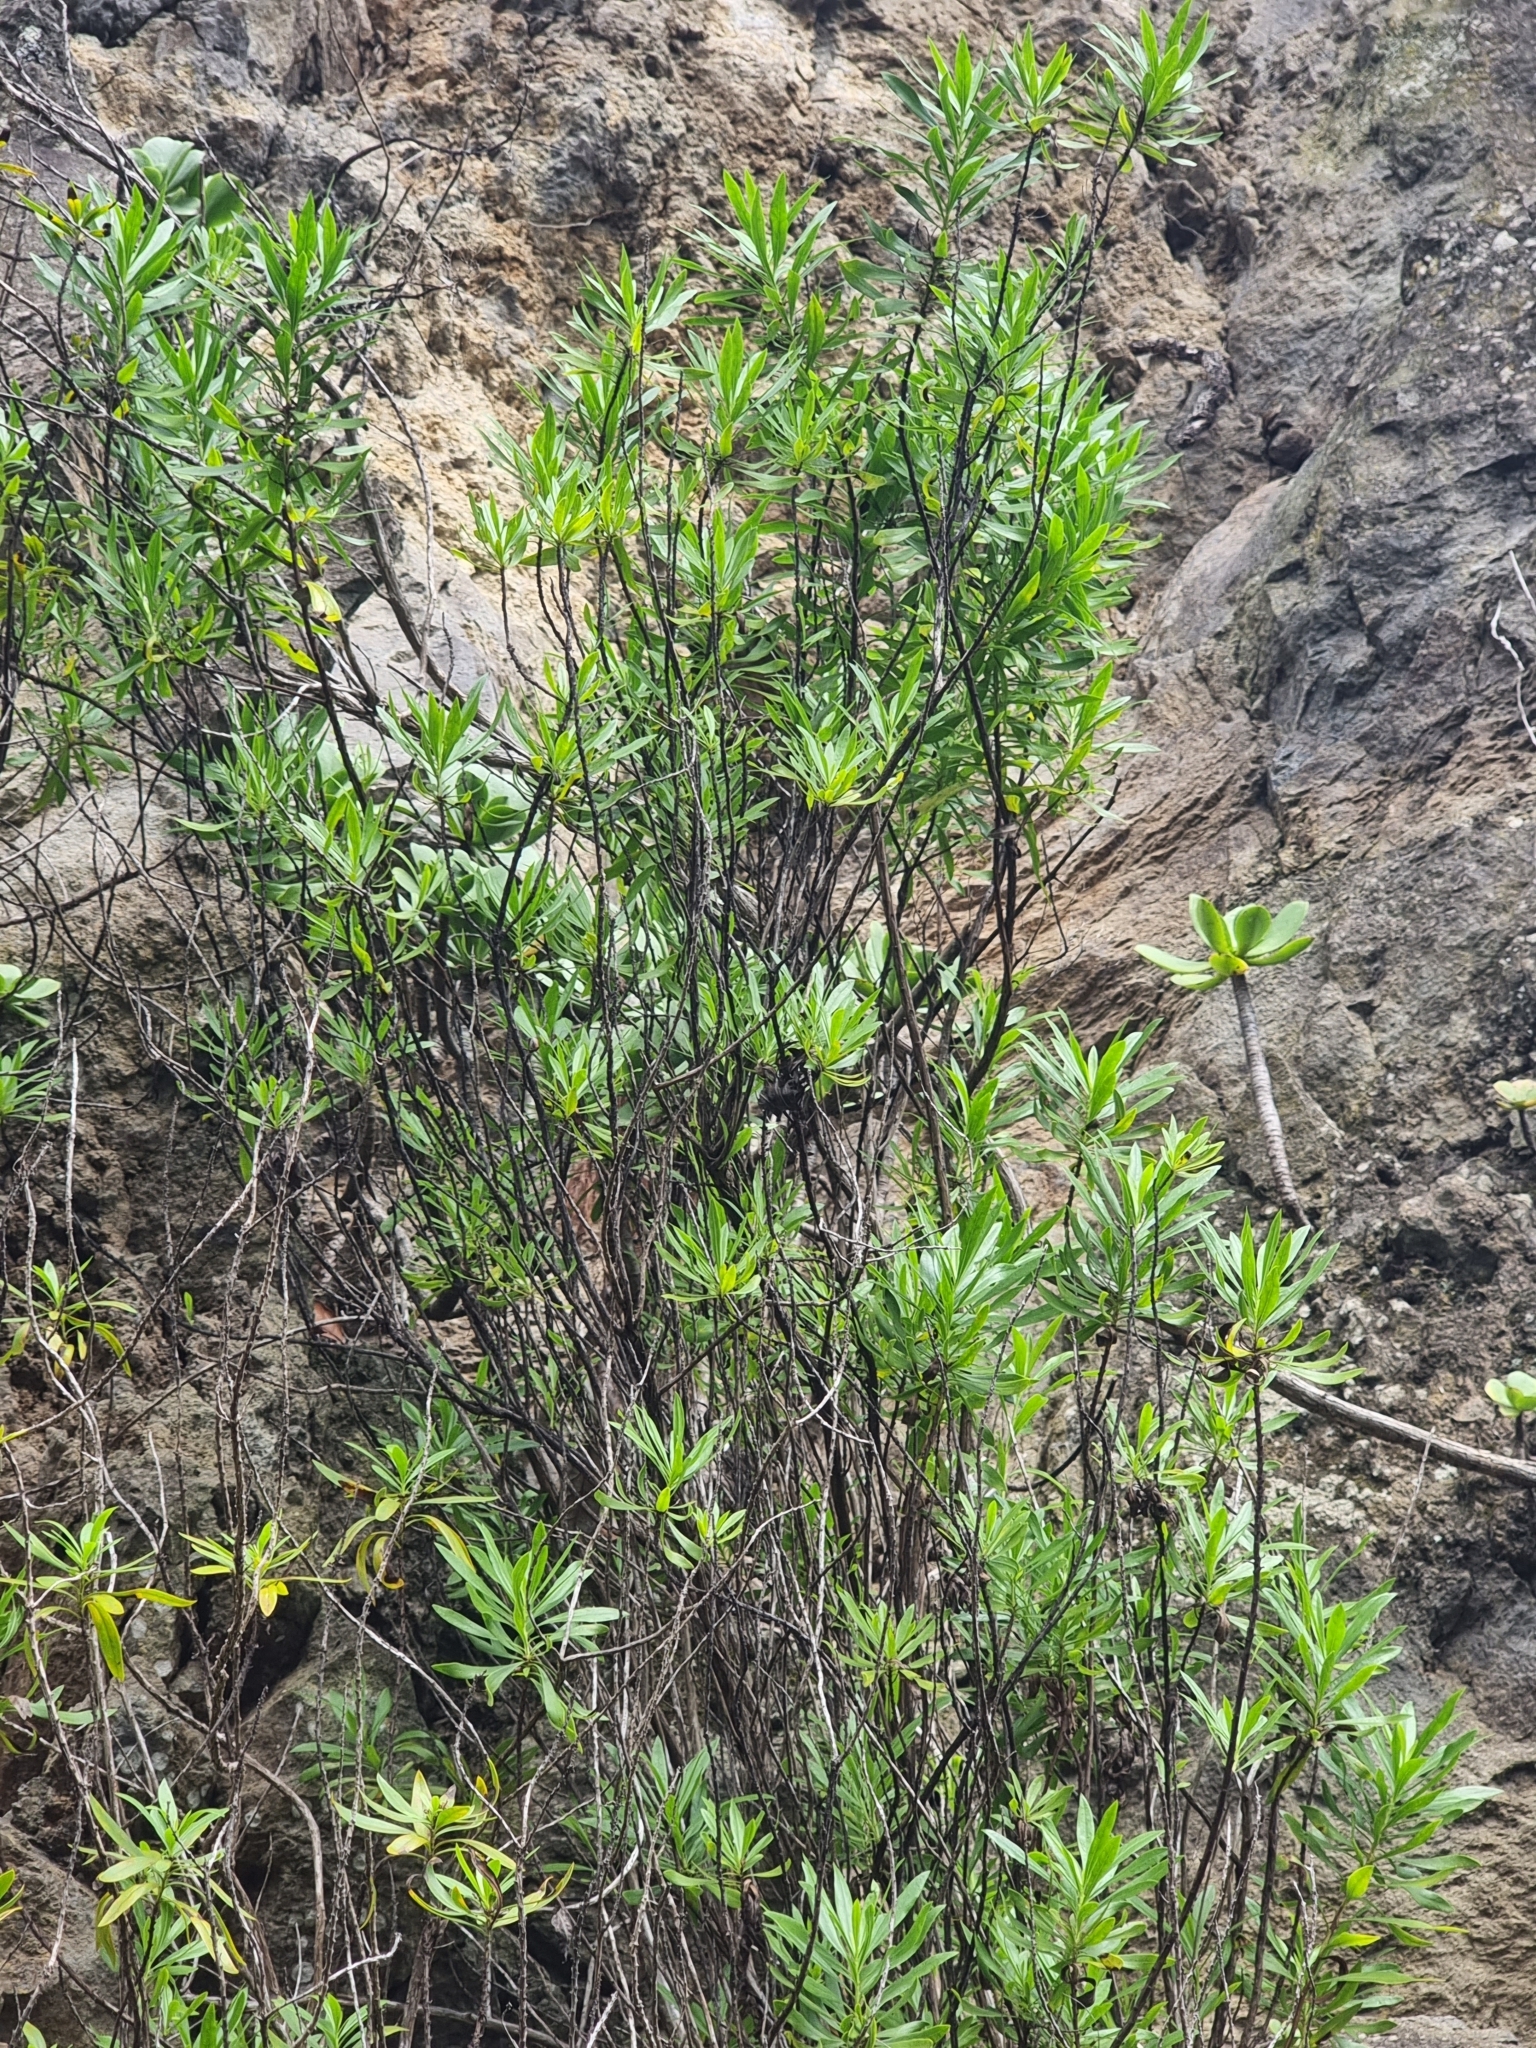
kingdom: Plantae
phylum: Tracheophyta
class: Magnoliopsida
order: Lamiales
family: Plantaginaceae
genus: Globularia
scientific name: Globularia salicina
